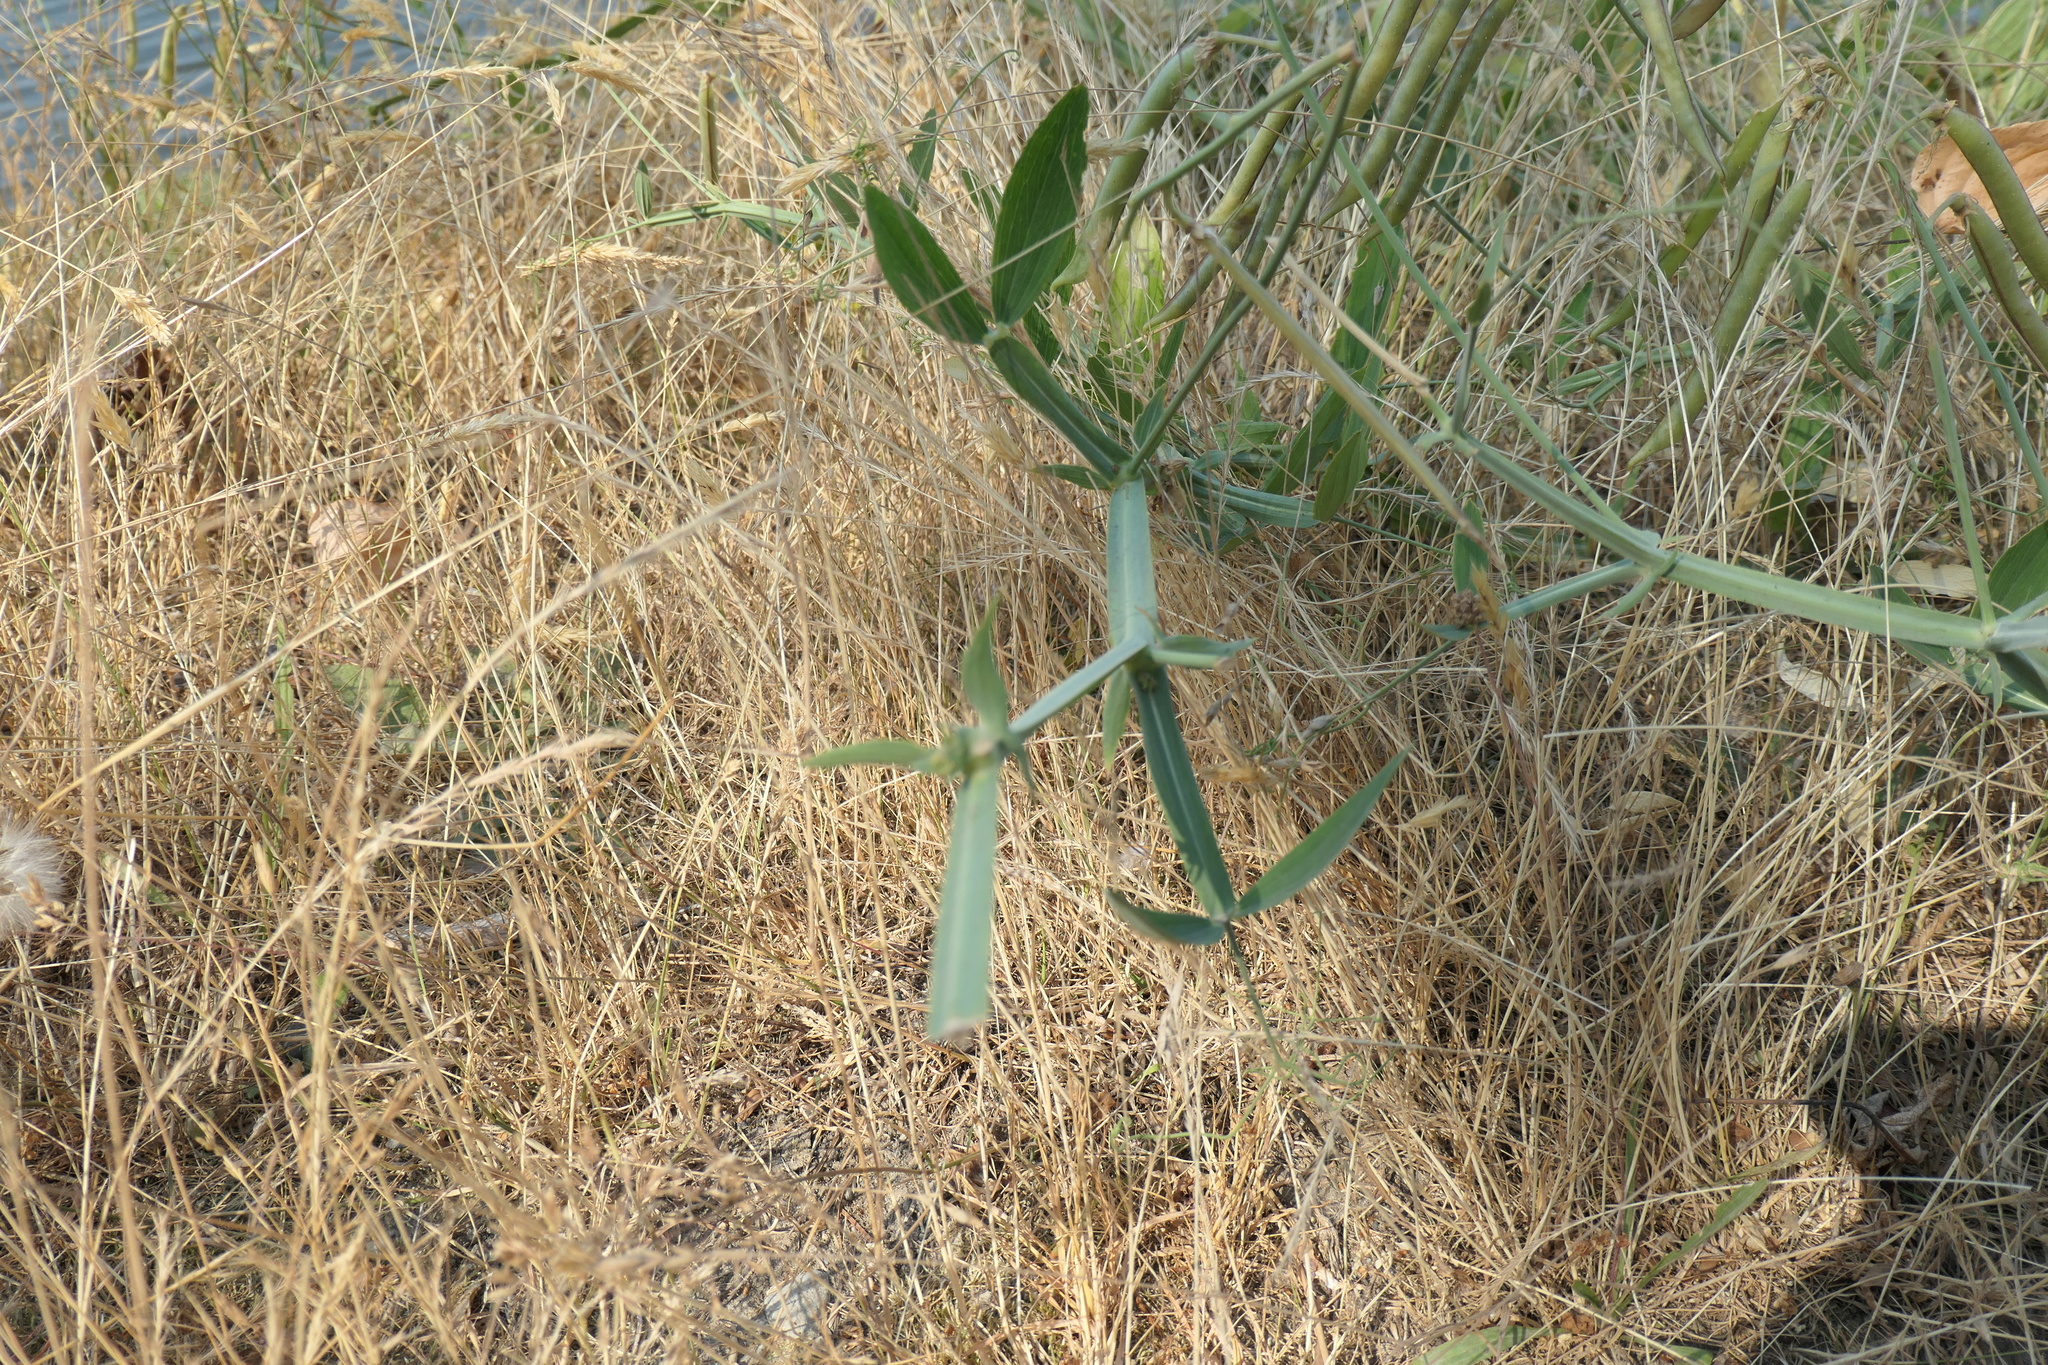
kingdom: Plantae
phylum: Tracheophyta
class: Magnoliopsida
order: Fabales
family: Fabaceae
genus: Lathyrus
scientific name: Lathyrus latifolius
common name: Perennial pea
